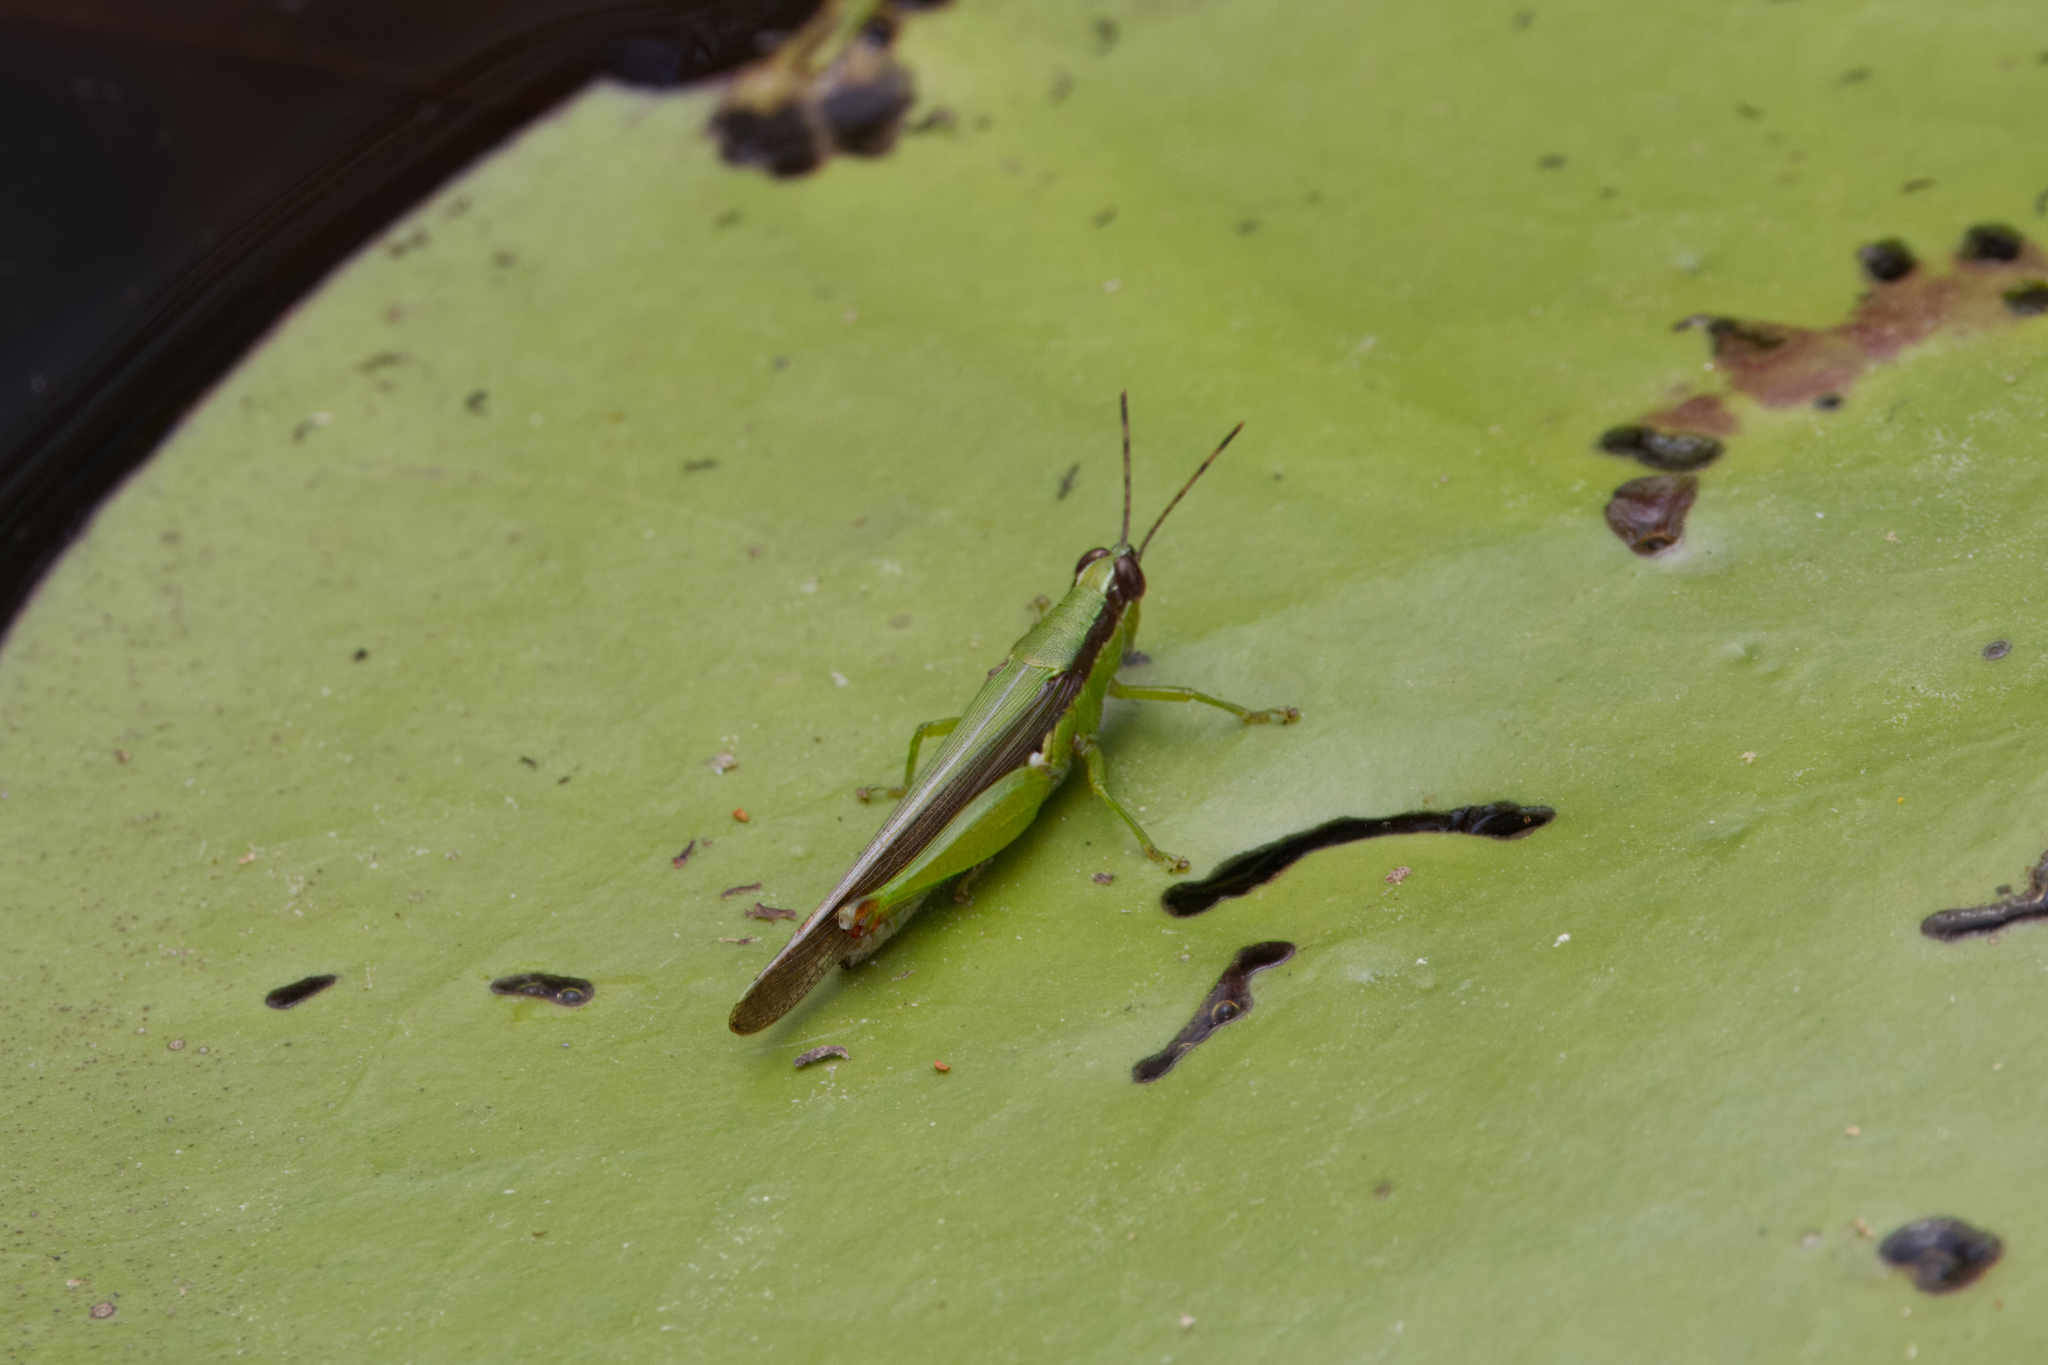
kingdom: Animalia
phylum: Arthropoda
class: Insecta
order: Orthoptera
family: Acrididae
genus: Gesonula
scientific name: Gesonula mundata
